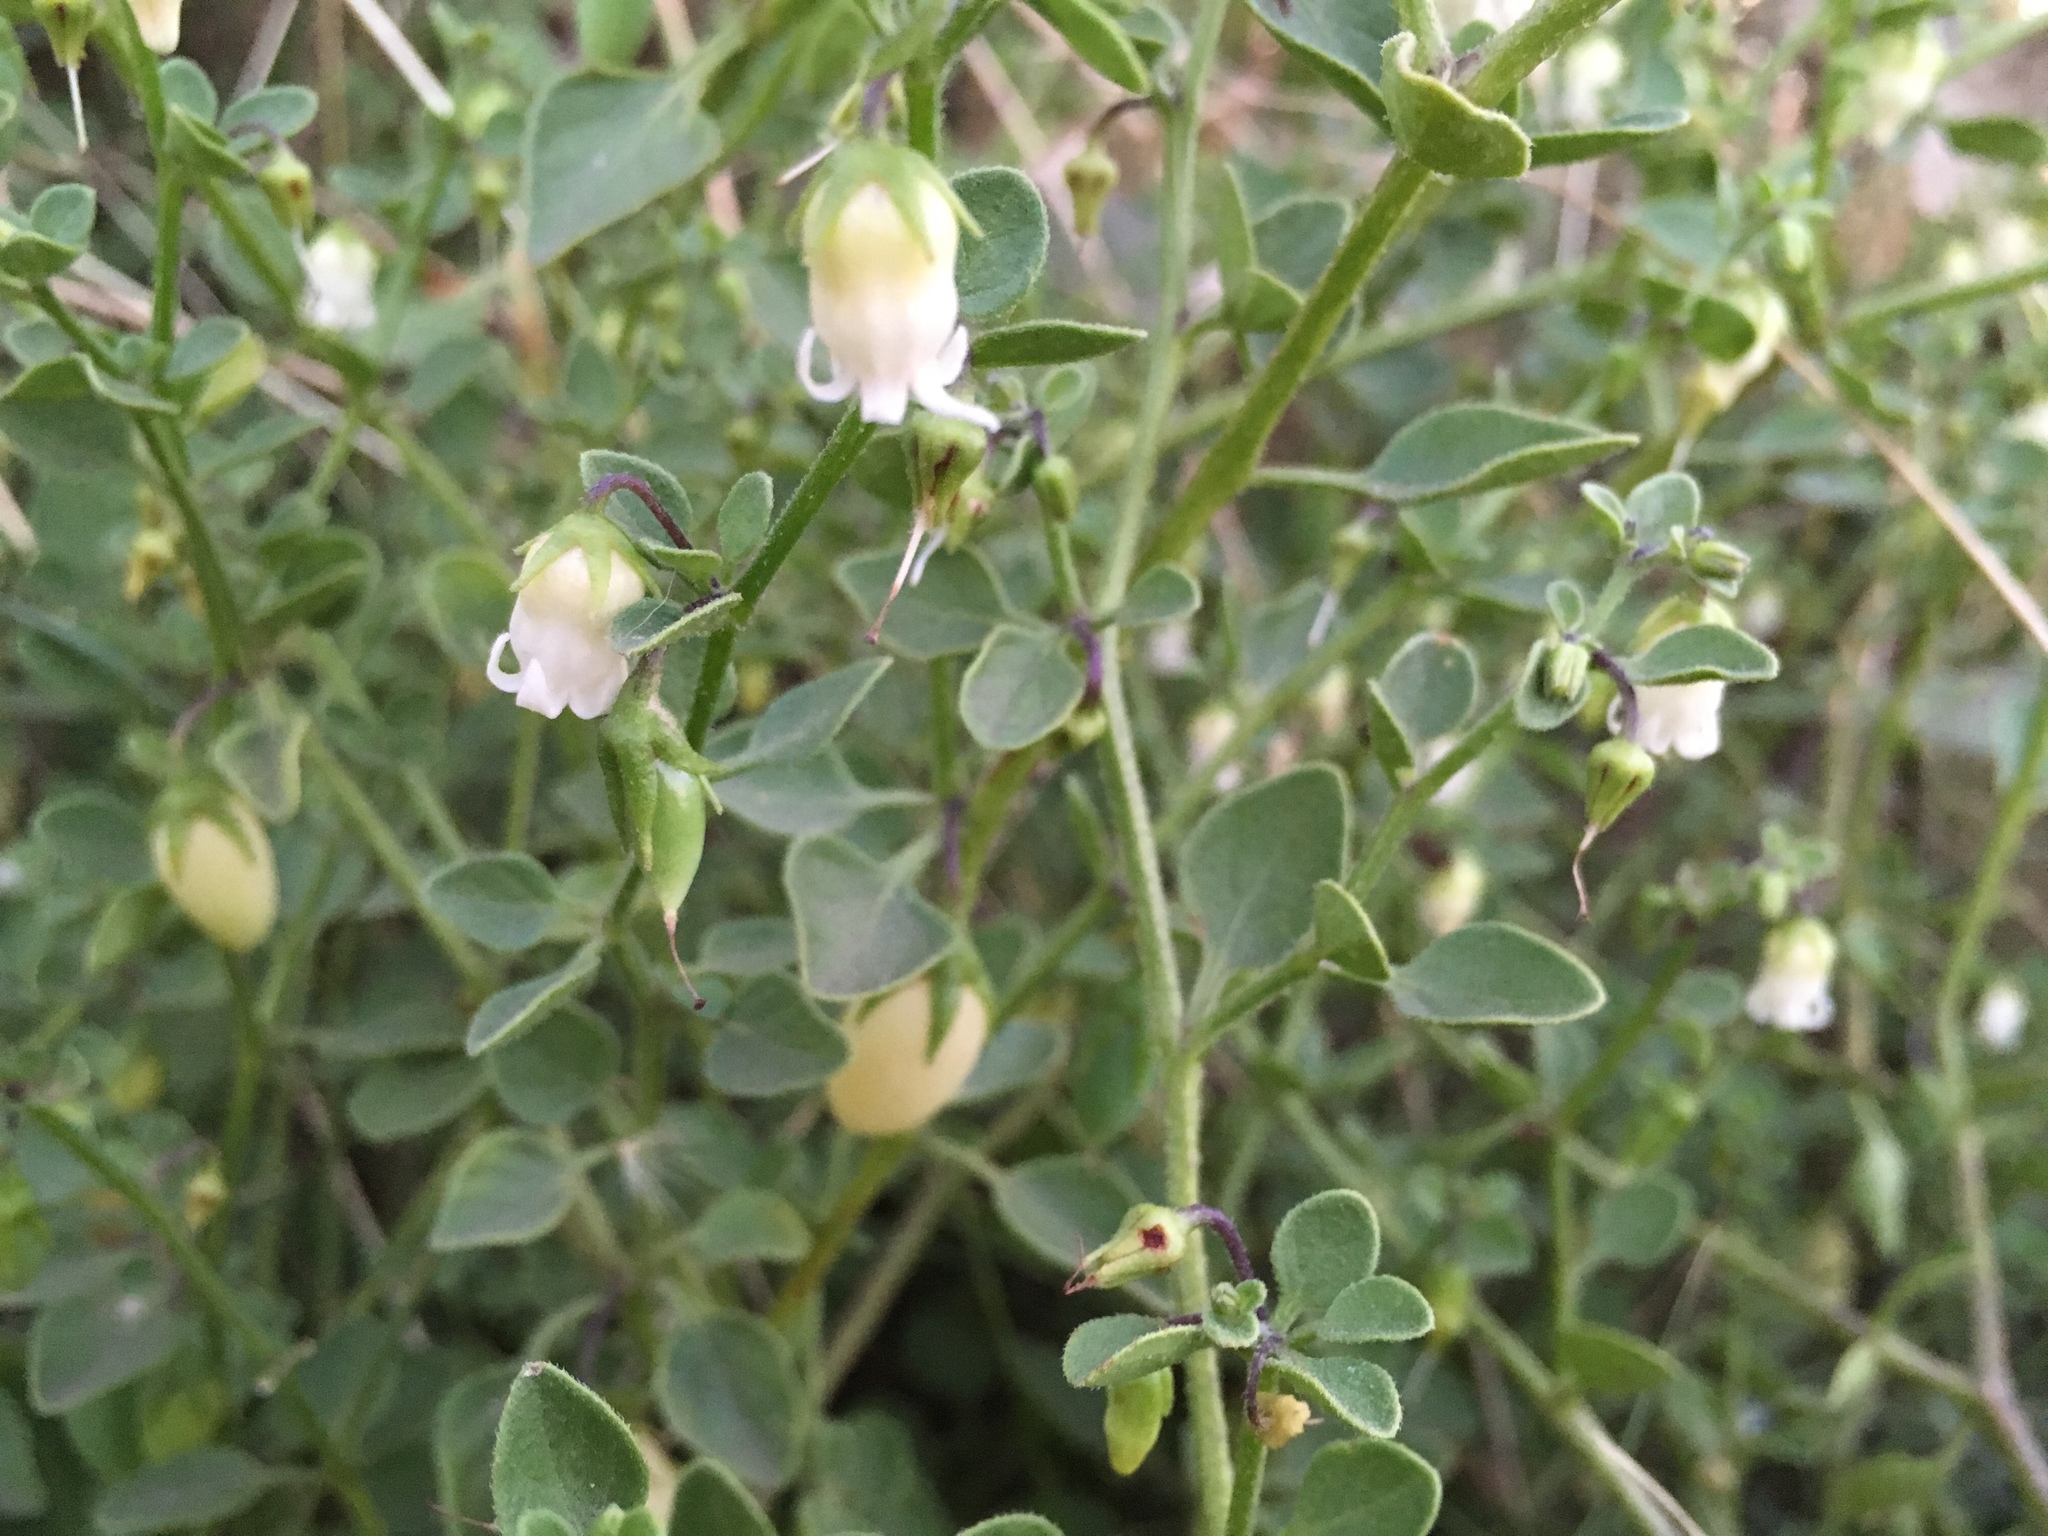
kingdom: Plantae
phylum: Tracheophyta
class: Magnoliopsida
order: Solanales
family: Solanaceae
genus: Salpichroa
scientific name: Salpichroa origanifolia
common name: Lily-of-the-valley-vine
